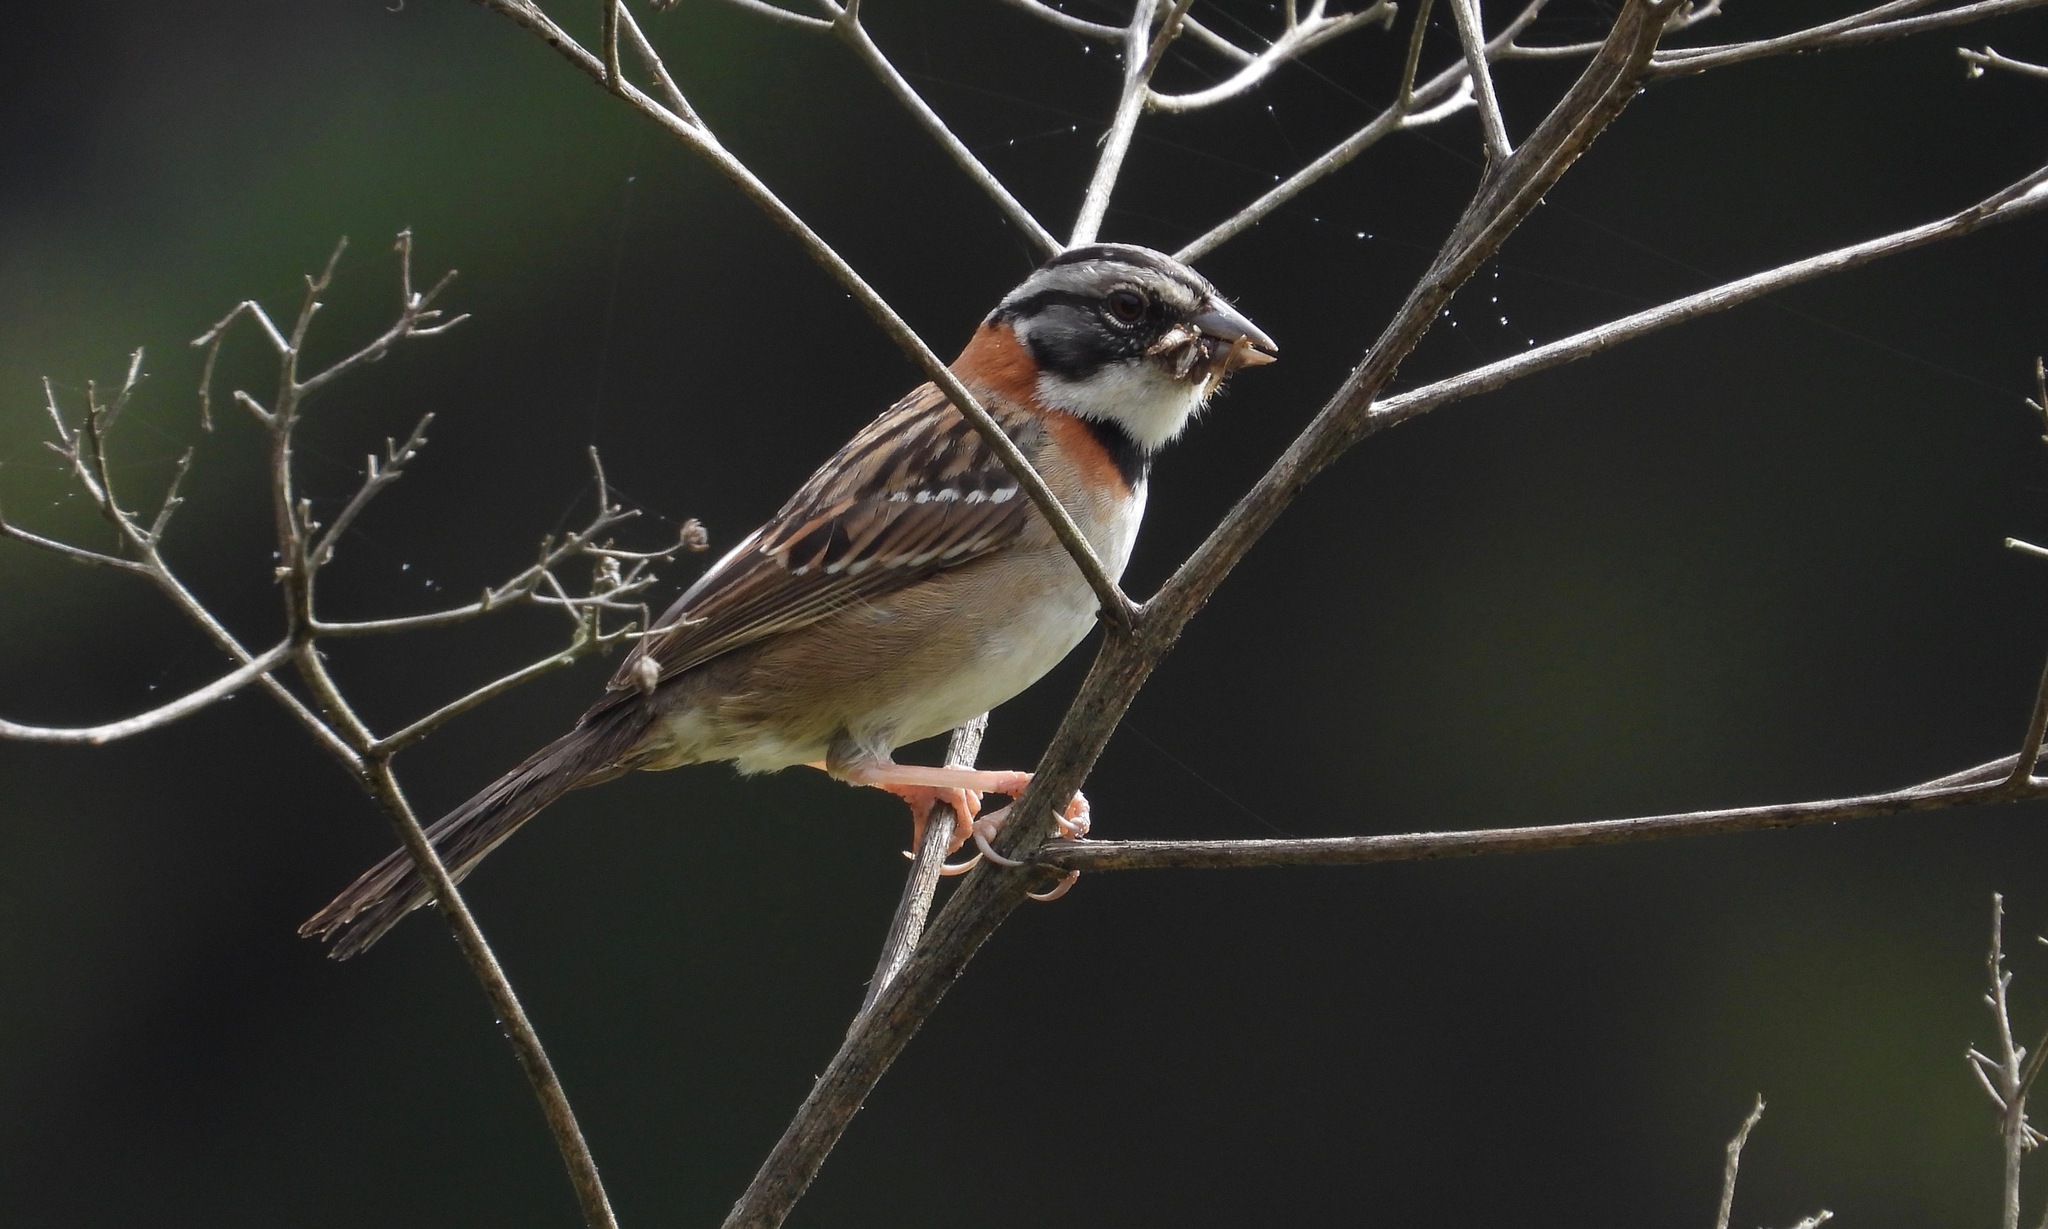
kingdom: Animalia
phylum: Chordata
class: Aves
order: Passeriformes
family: Passerellidae
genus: Zonotrichia
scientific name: Zonotrichia capensis
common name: Rufous-collared sparrow
